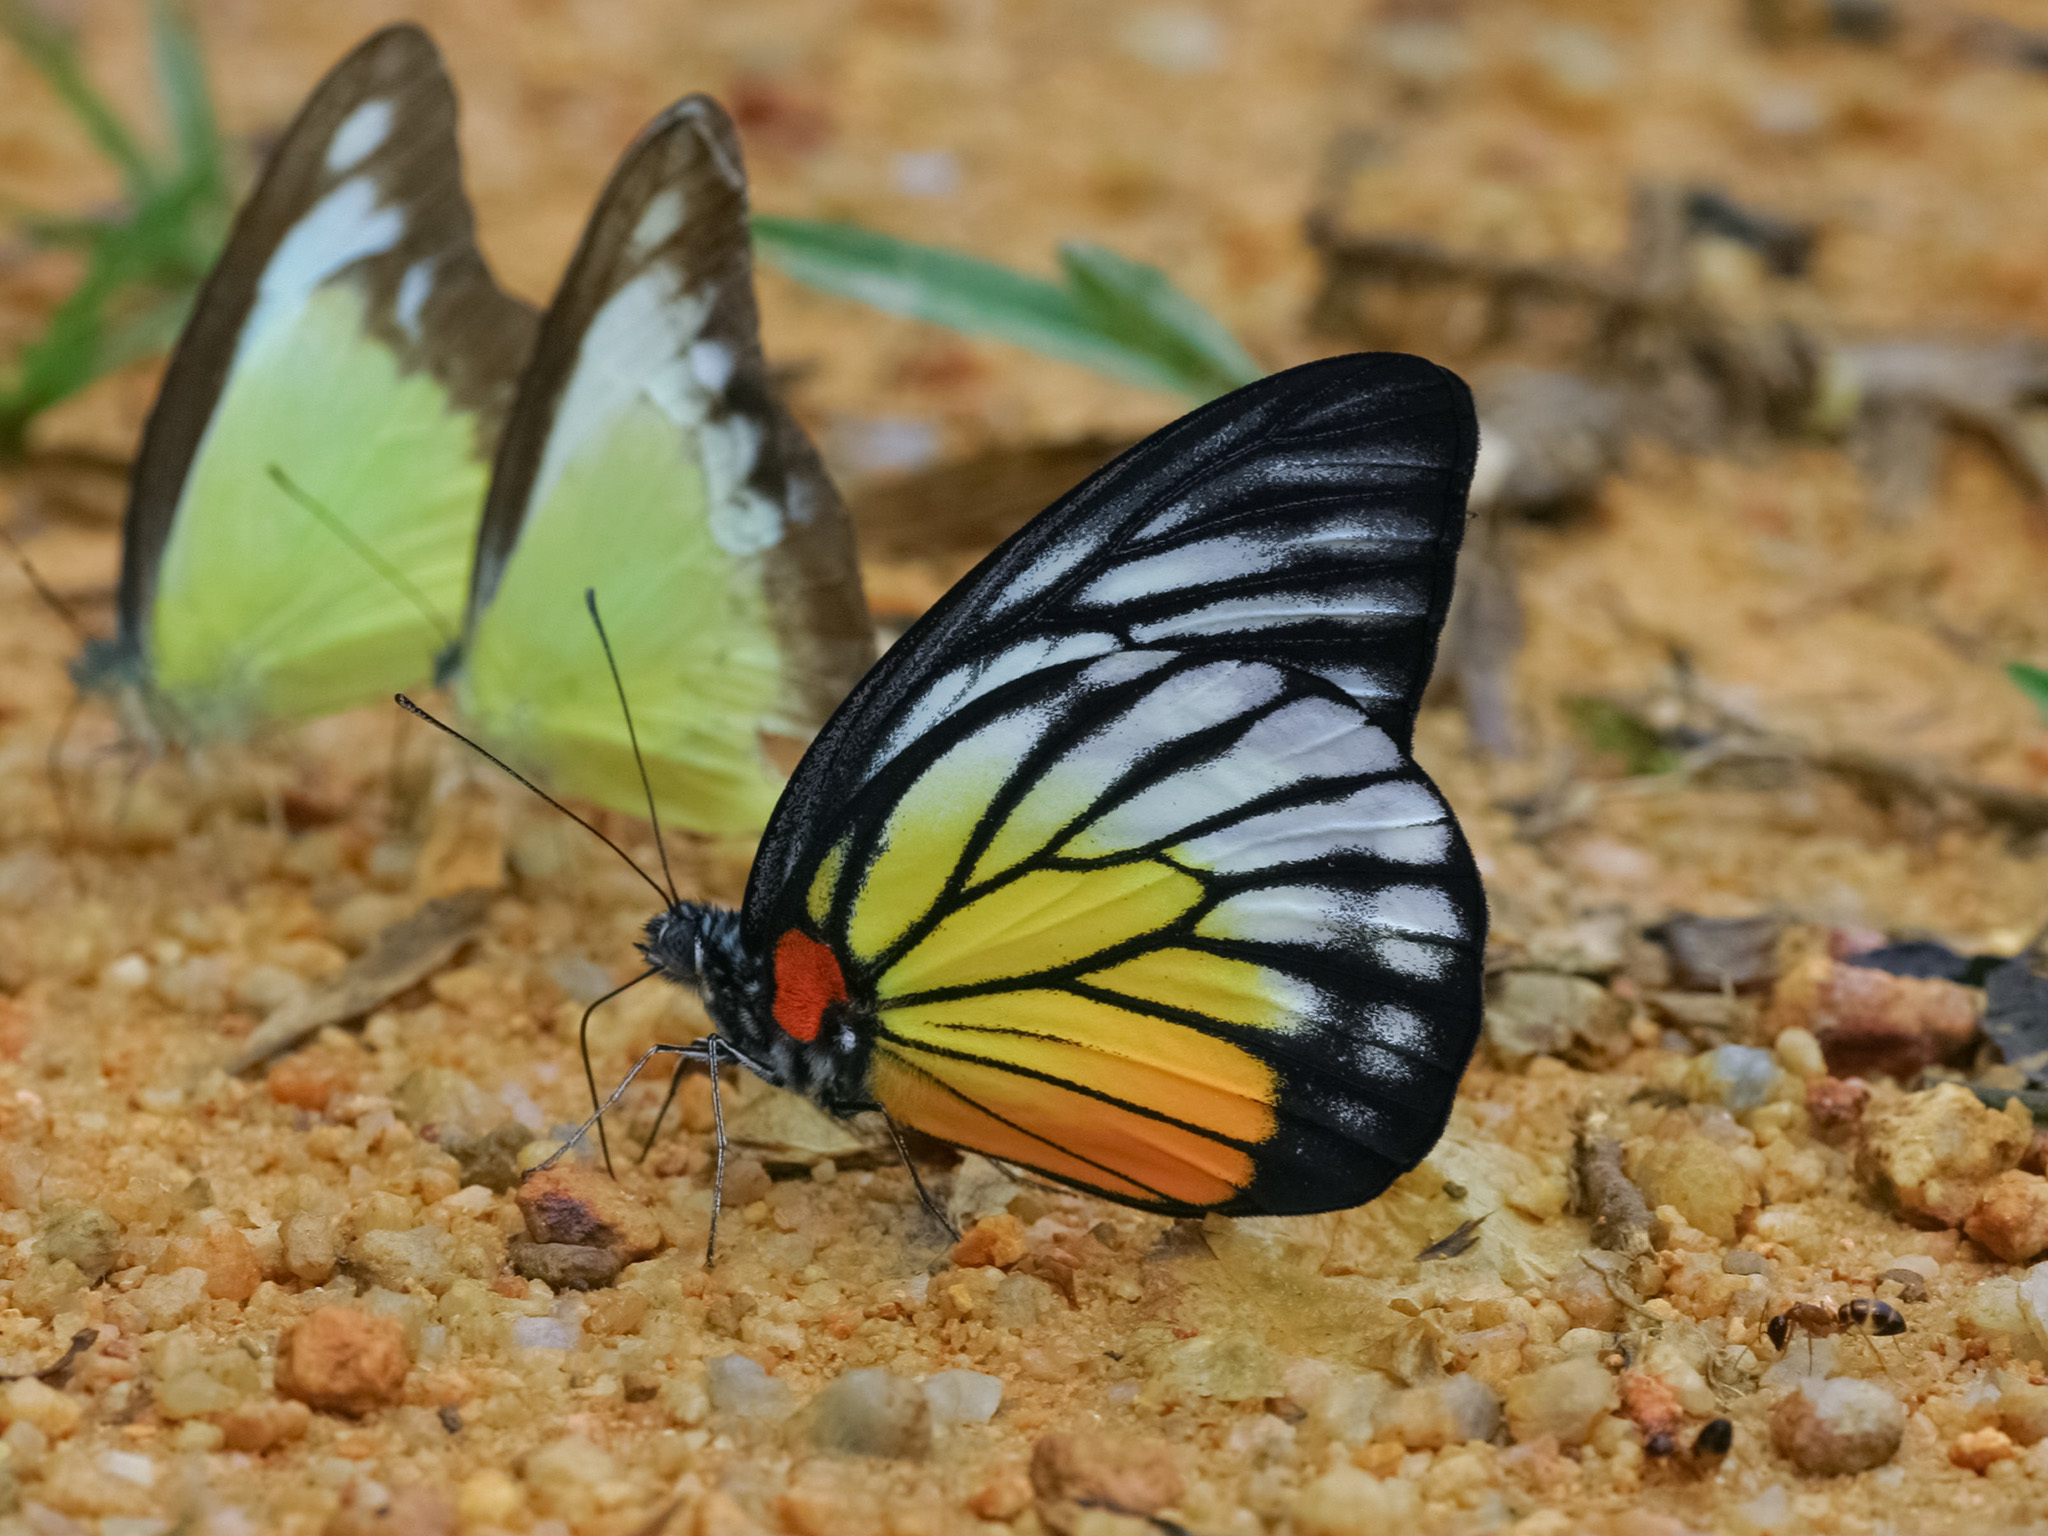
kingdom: Animalia
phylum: Arthropoda
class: Insecta
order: Lepidoptera
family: Pieridae
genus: Prioneris
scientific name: Prioneris philonome
